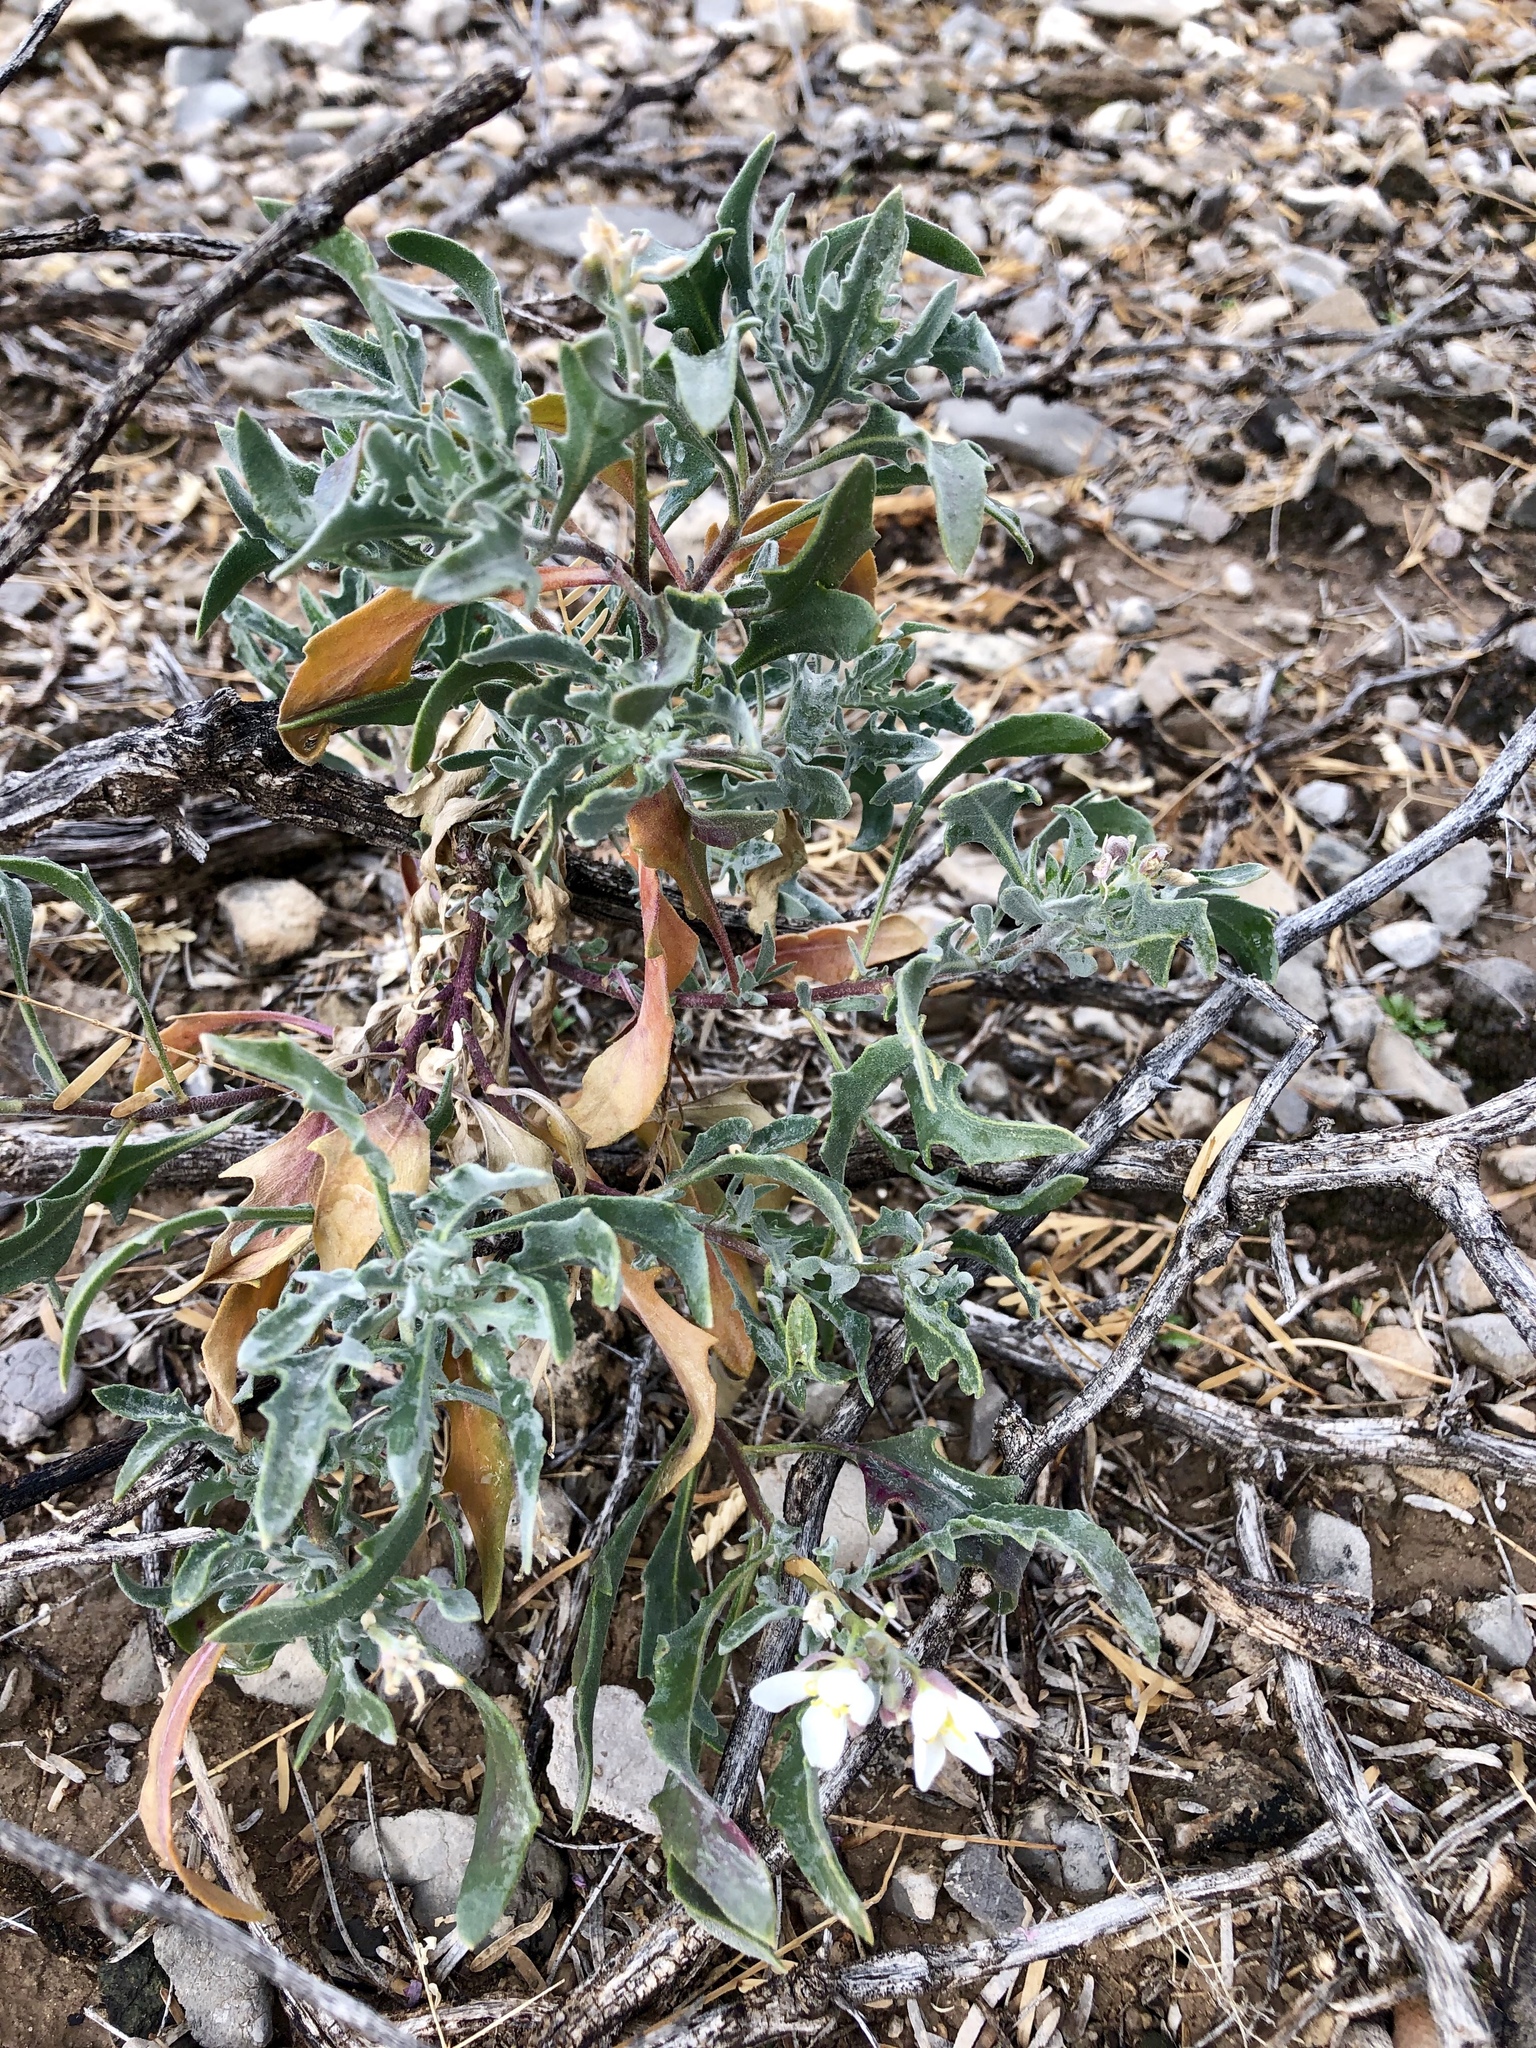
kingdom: Plantae
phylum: Tracheophyta
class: Magnoliopsida
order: Brassicales
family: Brassicaceae
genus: Nerisyrenia
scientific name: Nerisyrenia camporum
